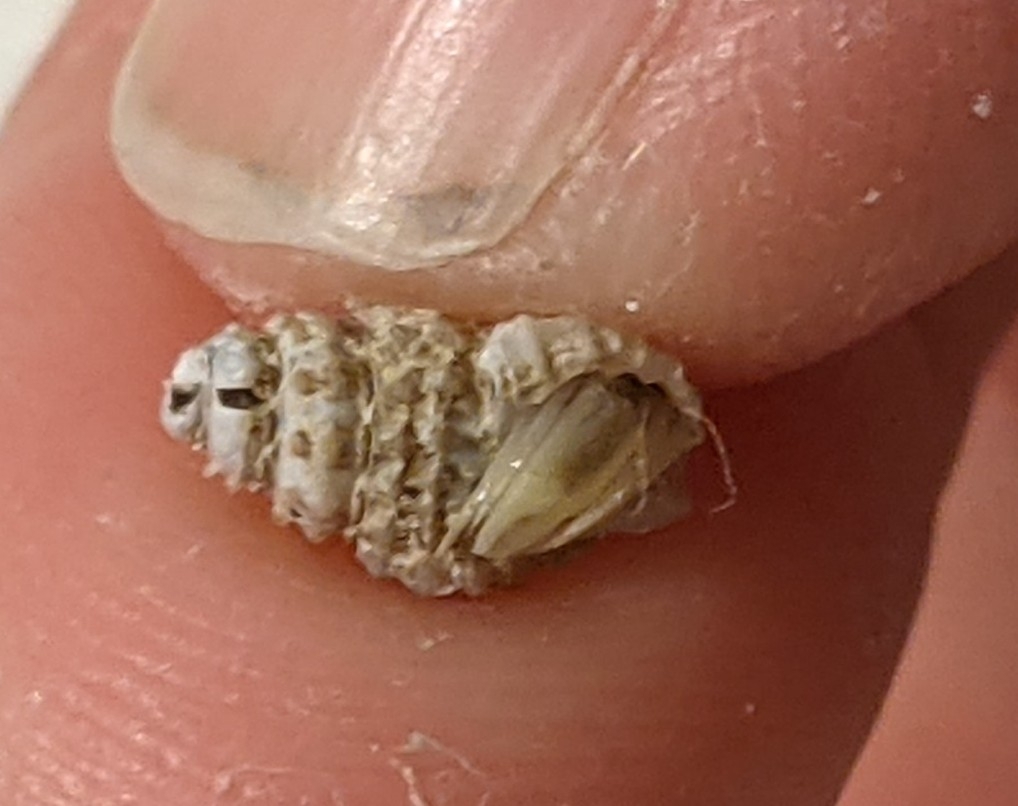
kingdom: Animalia
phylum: Arthropoda
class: Malacostraca
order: Decapoda
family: Paguridae
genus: Pagurus
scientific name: Pagurus longicarpus
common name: Long-armed hermit crab
